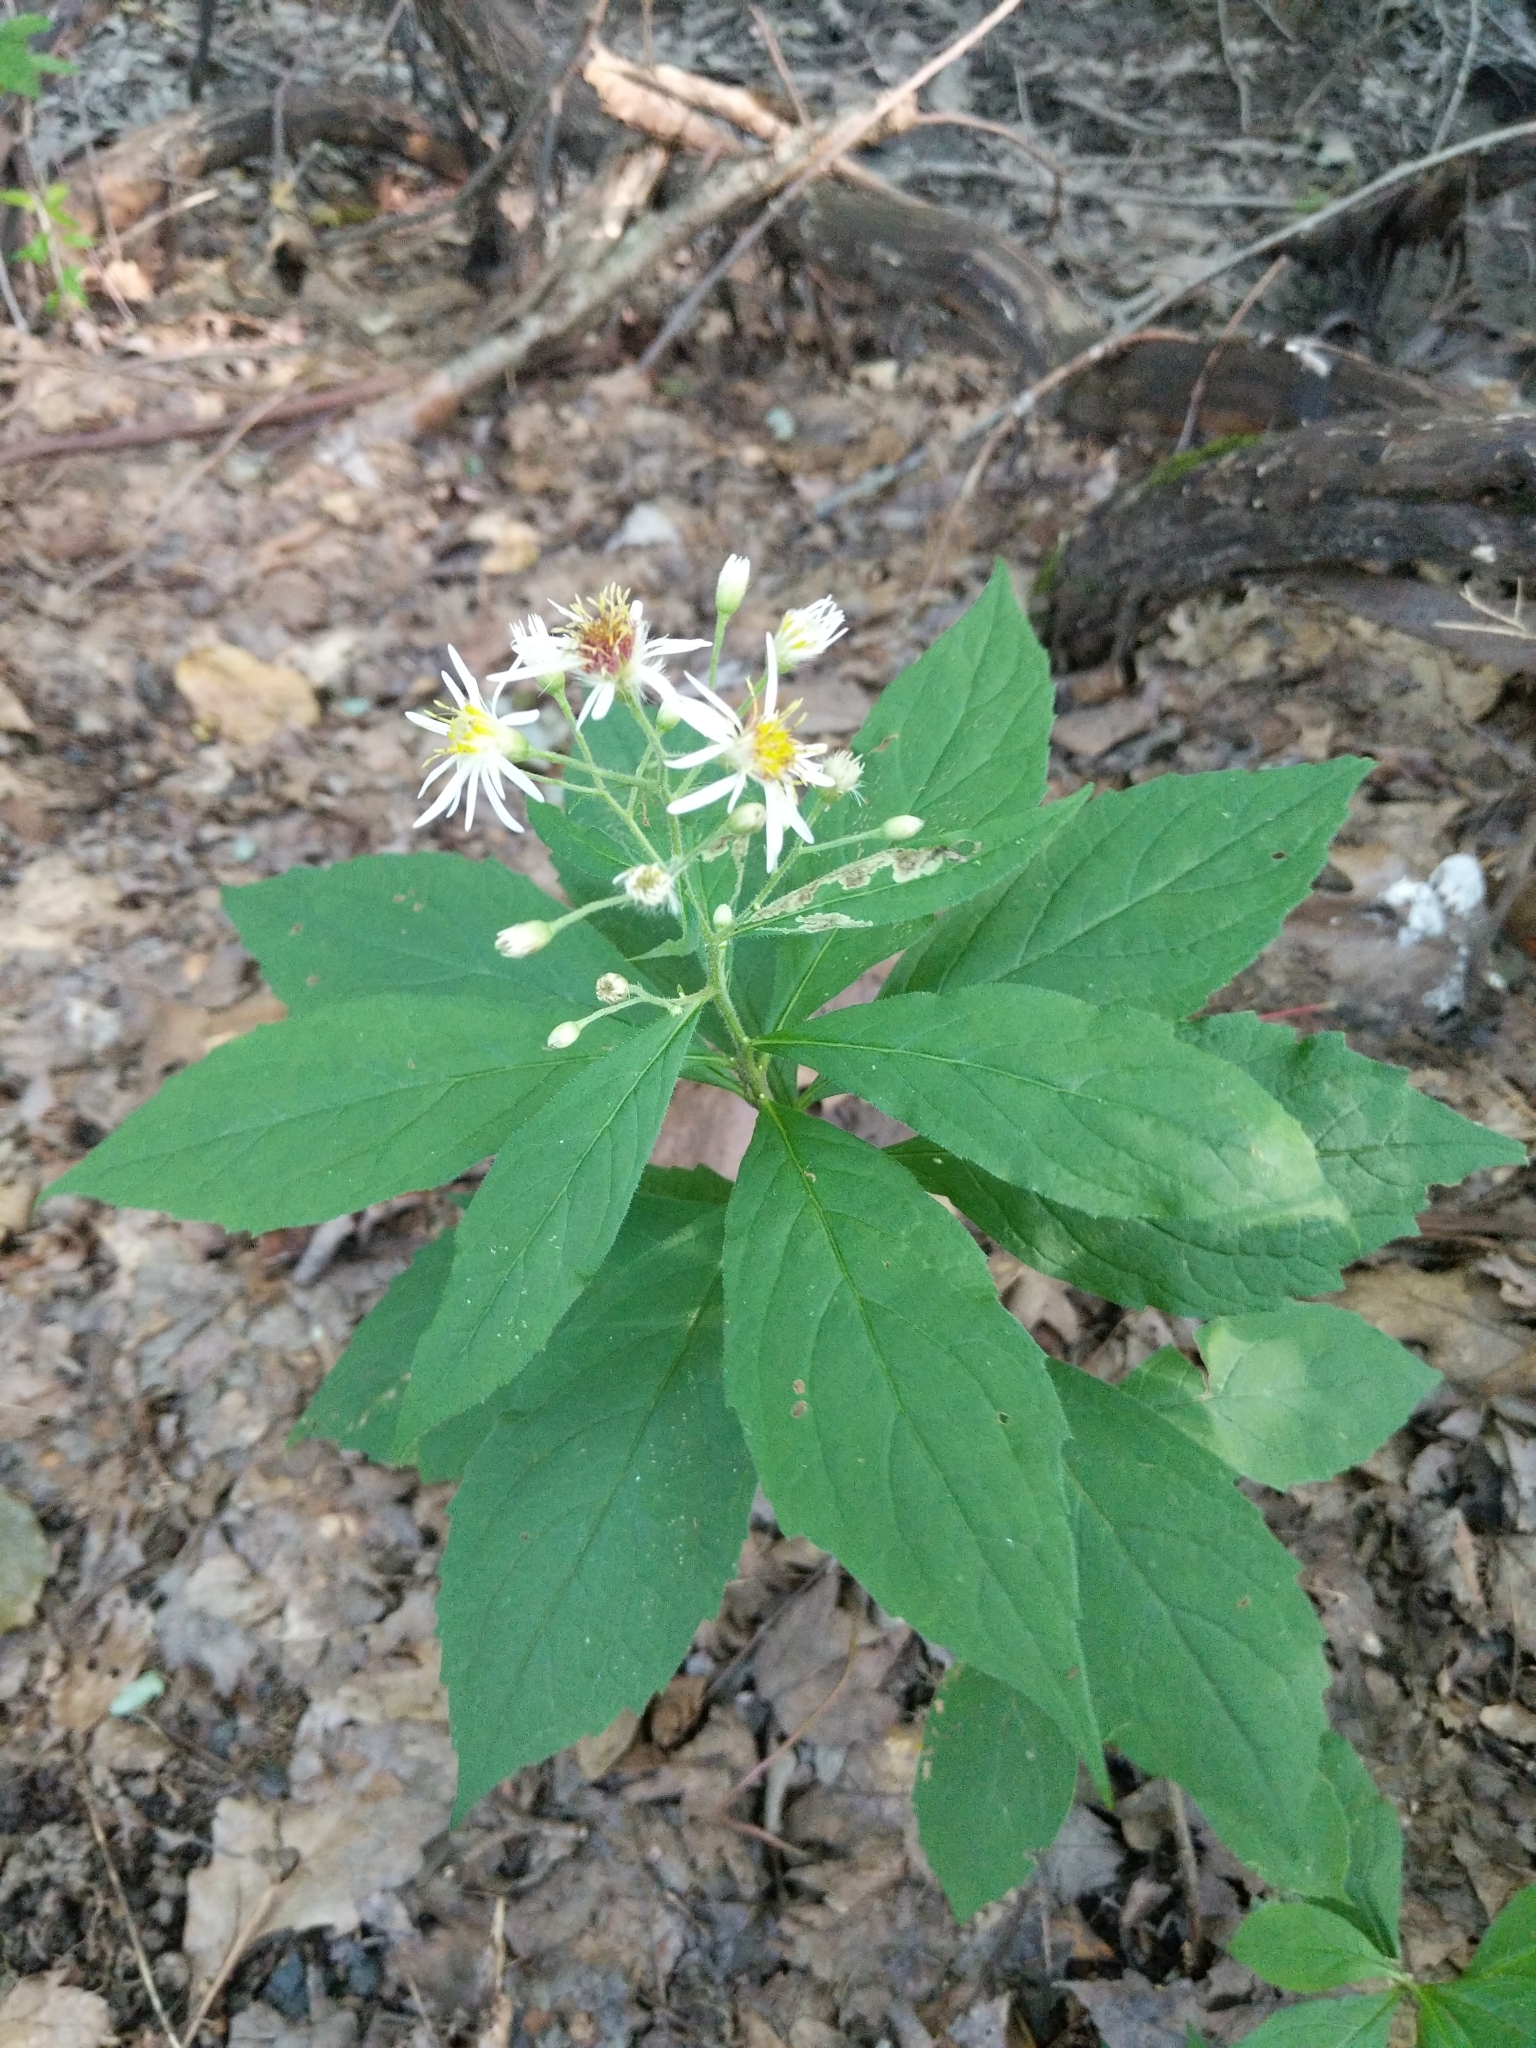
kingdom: Plantae
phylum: Tracheophyta
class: Magnoliopsida
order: Asterales
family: Asteraceae
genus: Oclemena
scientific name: Oclemena acuminata
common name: Mountain aster
